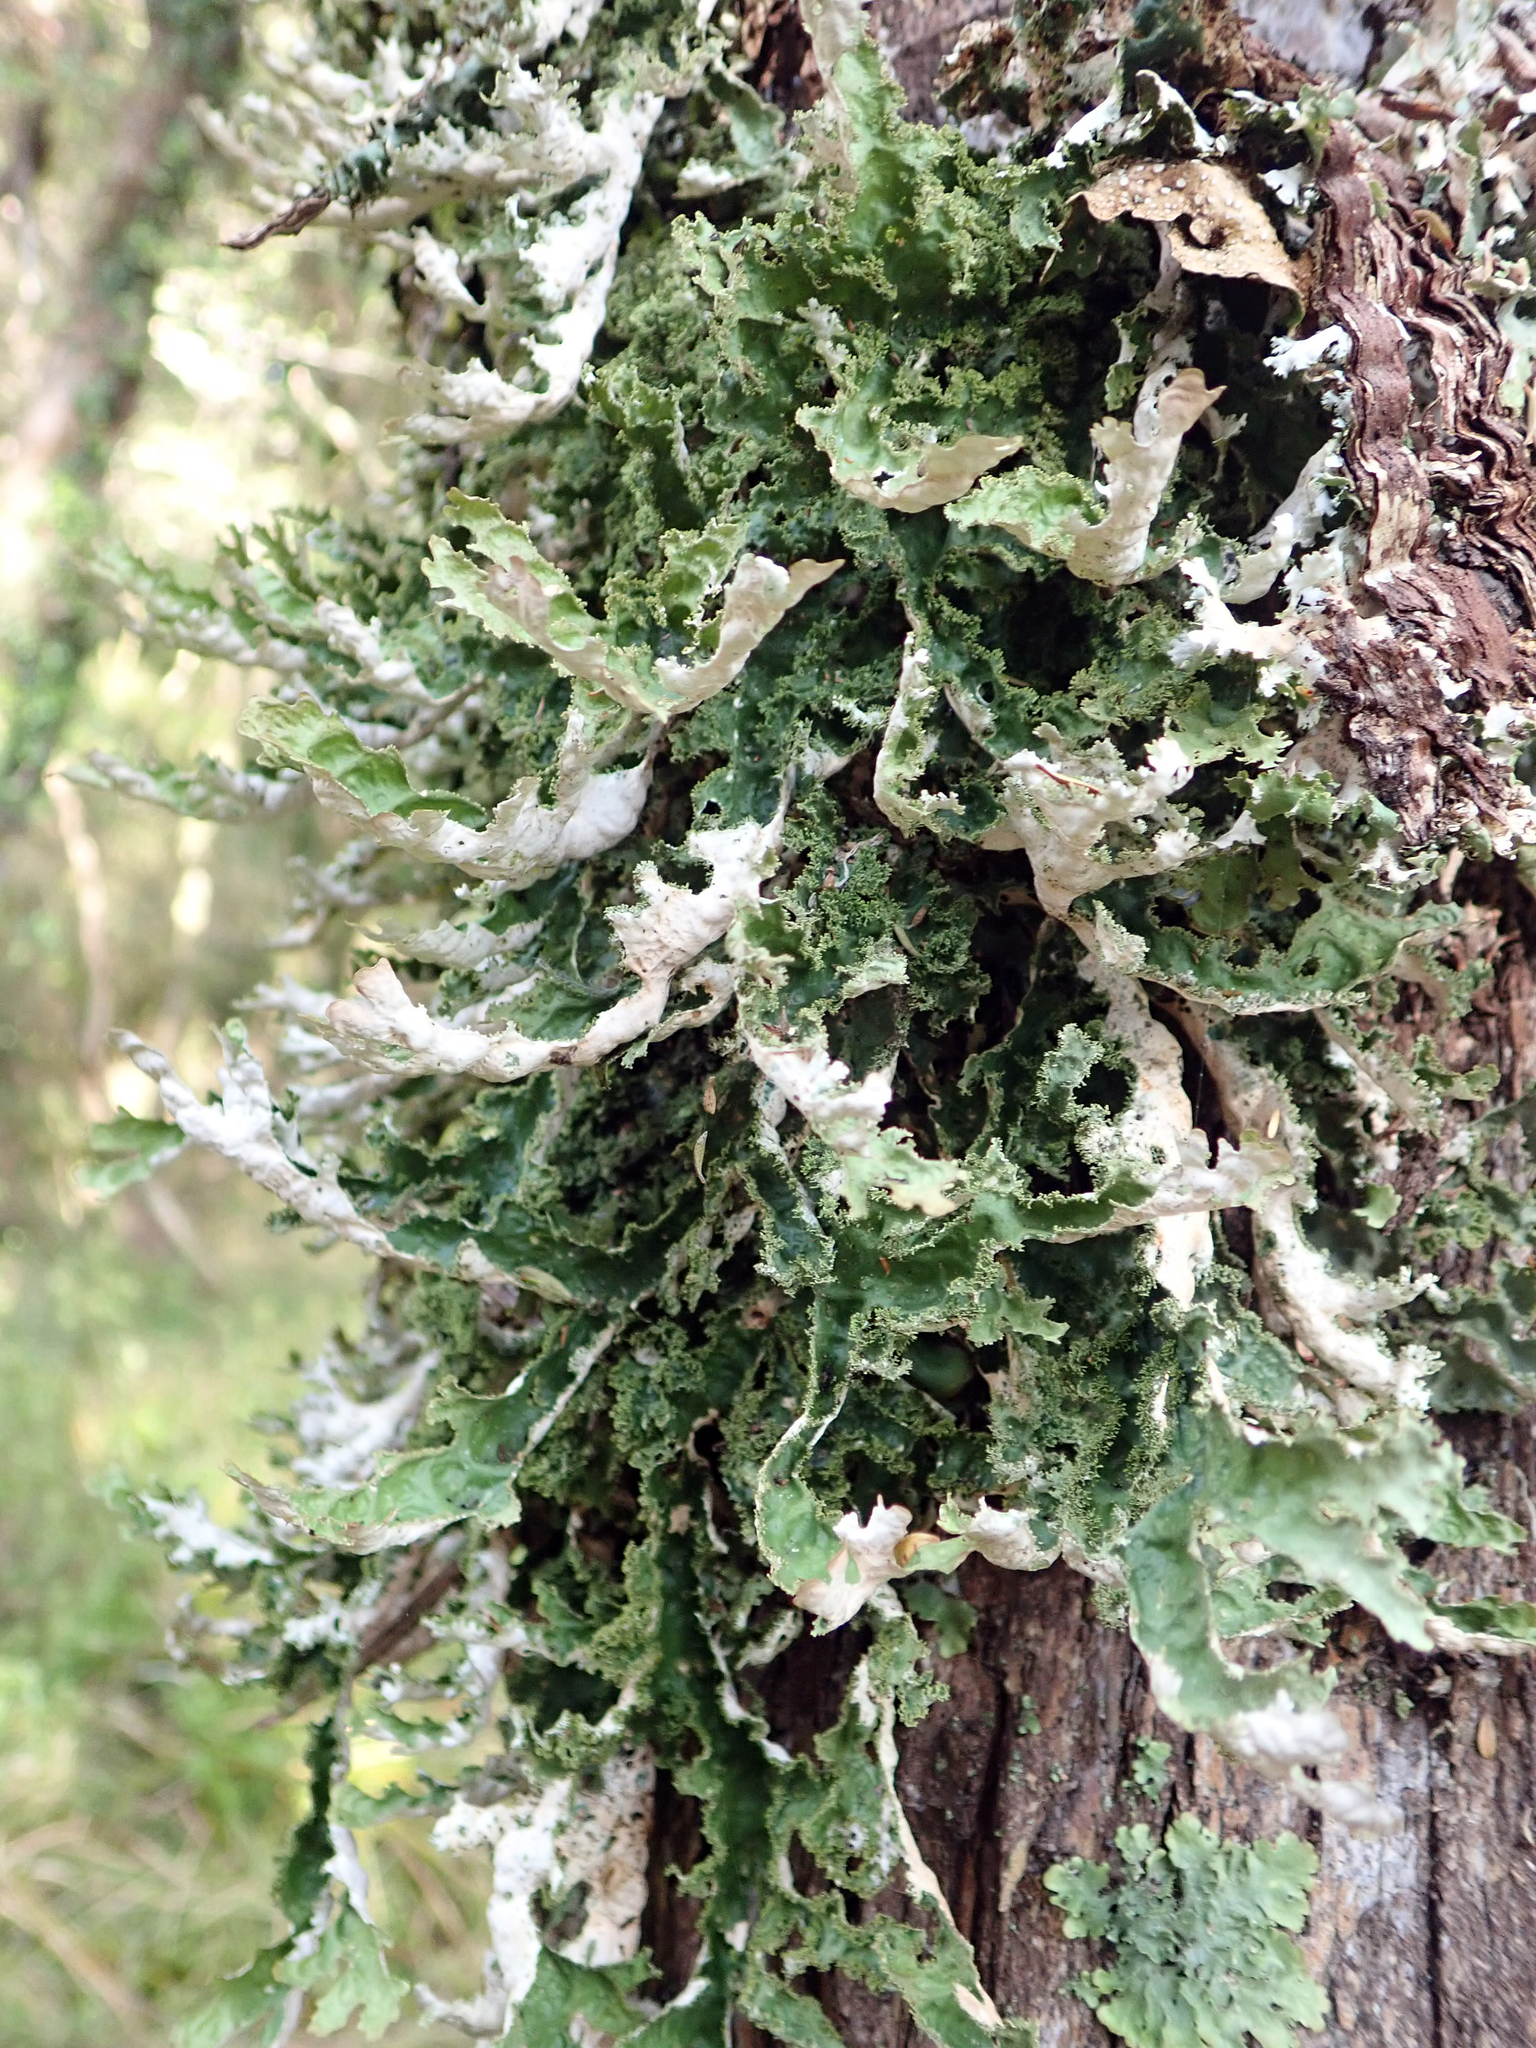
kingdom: Fungi
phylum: Ascomycota
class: Lecanoromycetes
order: Peltigerales
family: Lobariaceae
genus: Pseudocyphellaria
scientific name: Pseudocyphellaria chloroleuca
